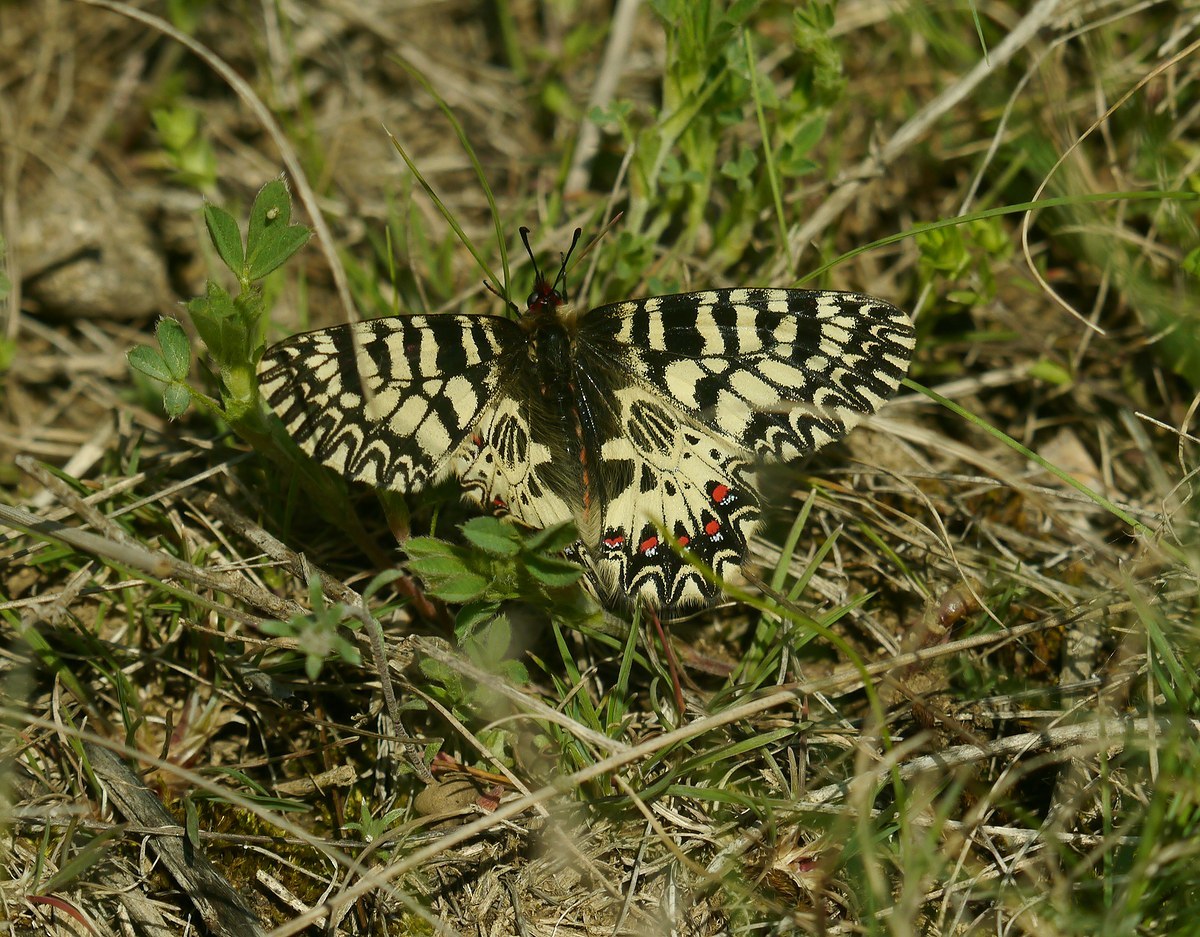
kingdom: Animalia
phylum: Arthropoda
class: Insecta
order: Lepidoptera
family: Papilionidae
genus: Zerynthia
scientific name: Zerynthia polyxena
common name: Southern festoon
